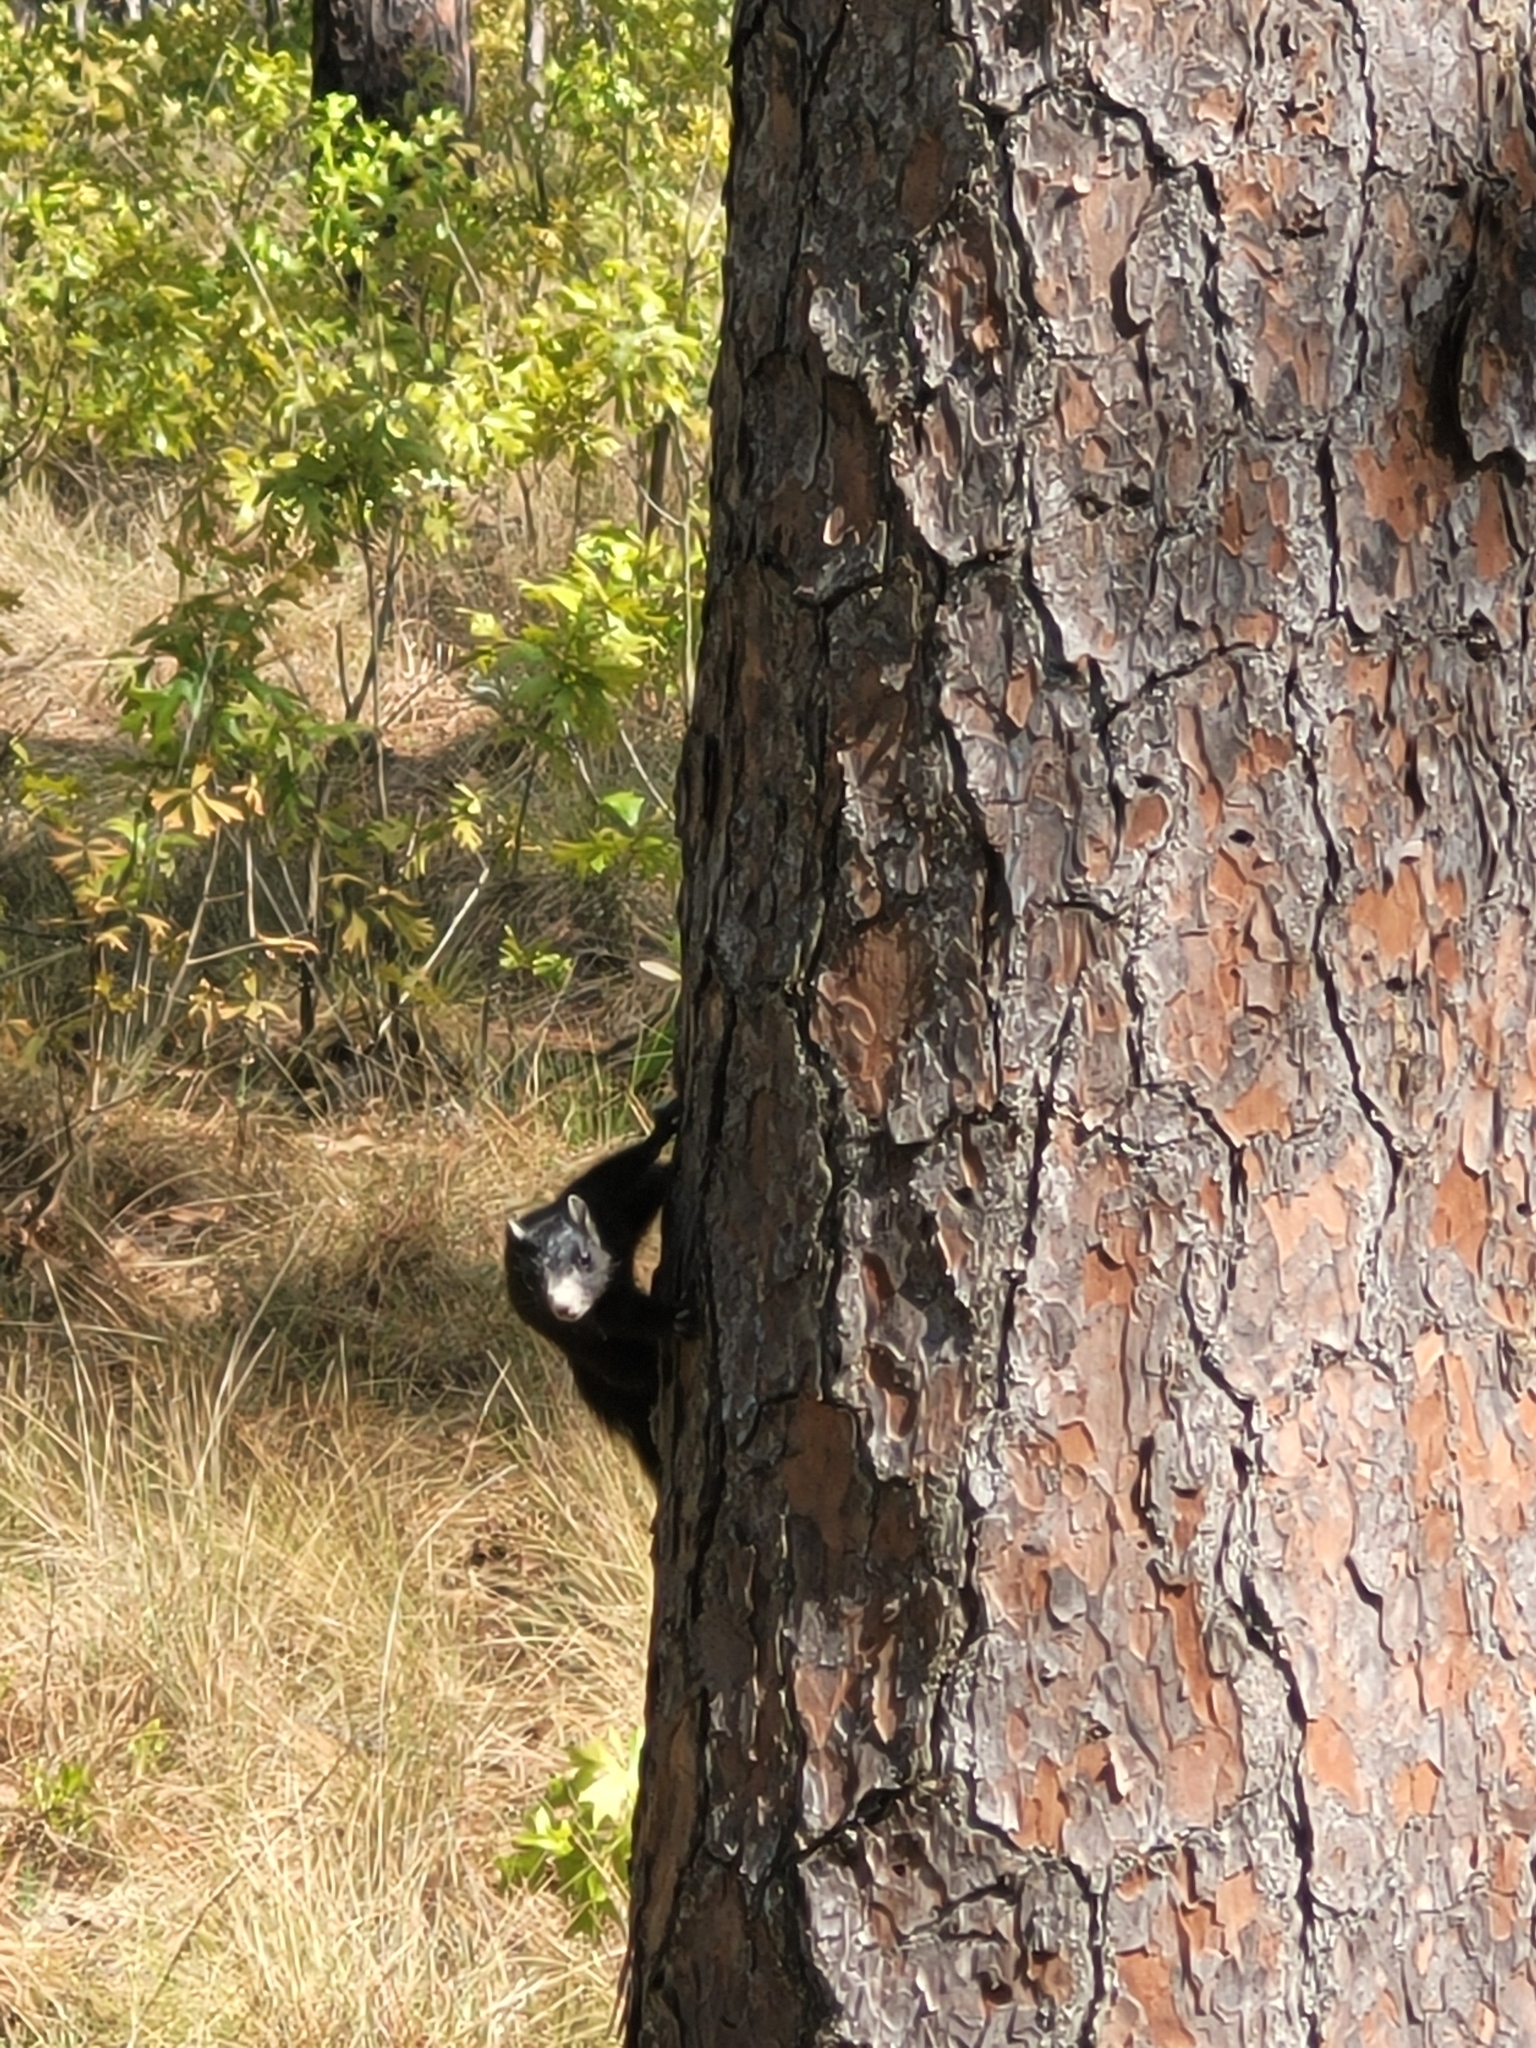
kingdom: Animalia
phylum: Chordata
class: Mammalia
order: Rodentia
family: Sciuridae
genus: Sciurus
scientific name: Sciurus niger
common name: Fox squirrel
